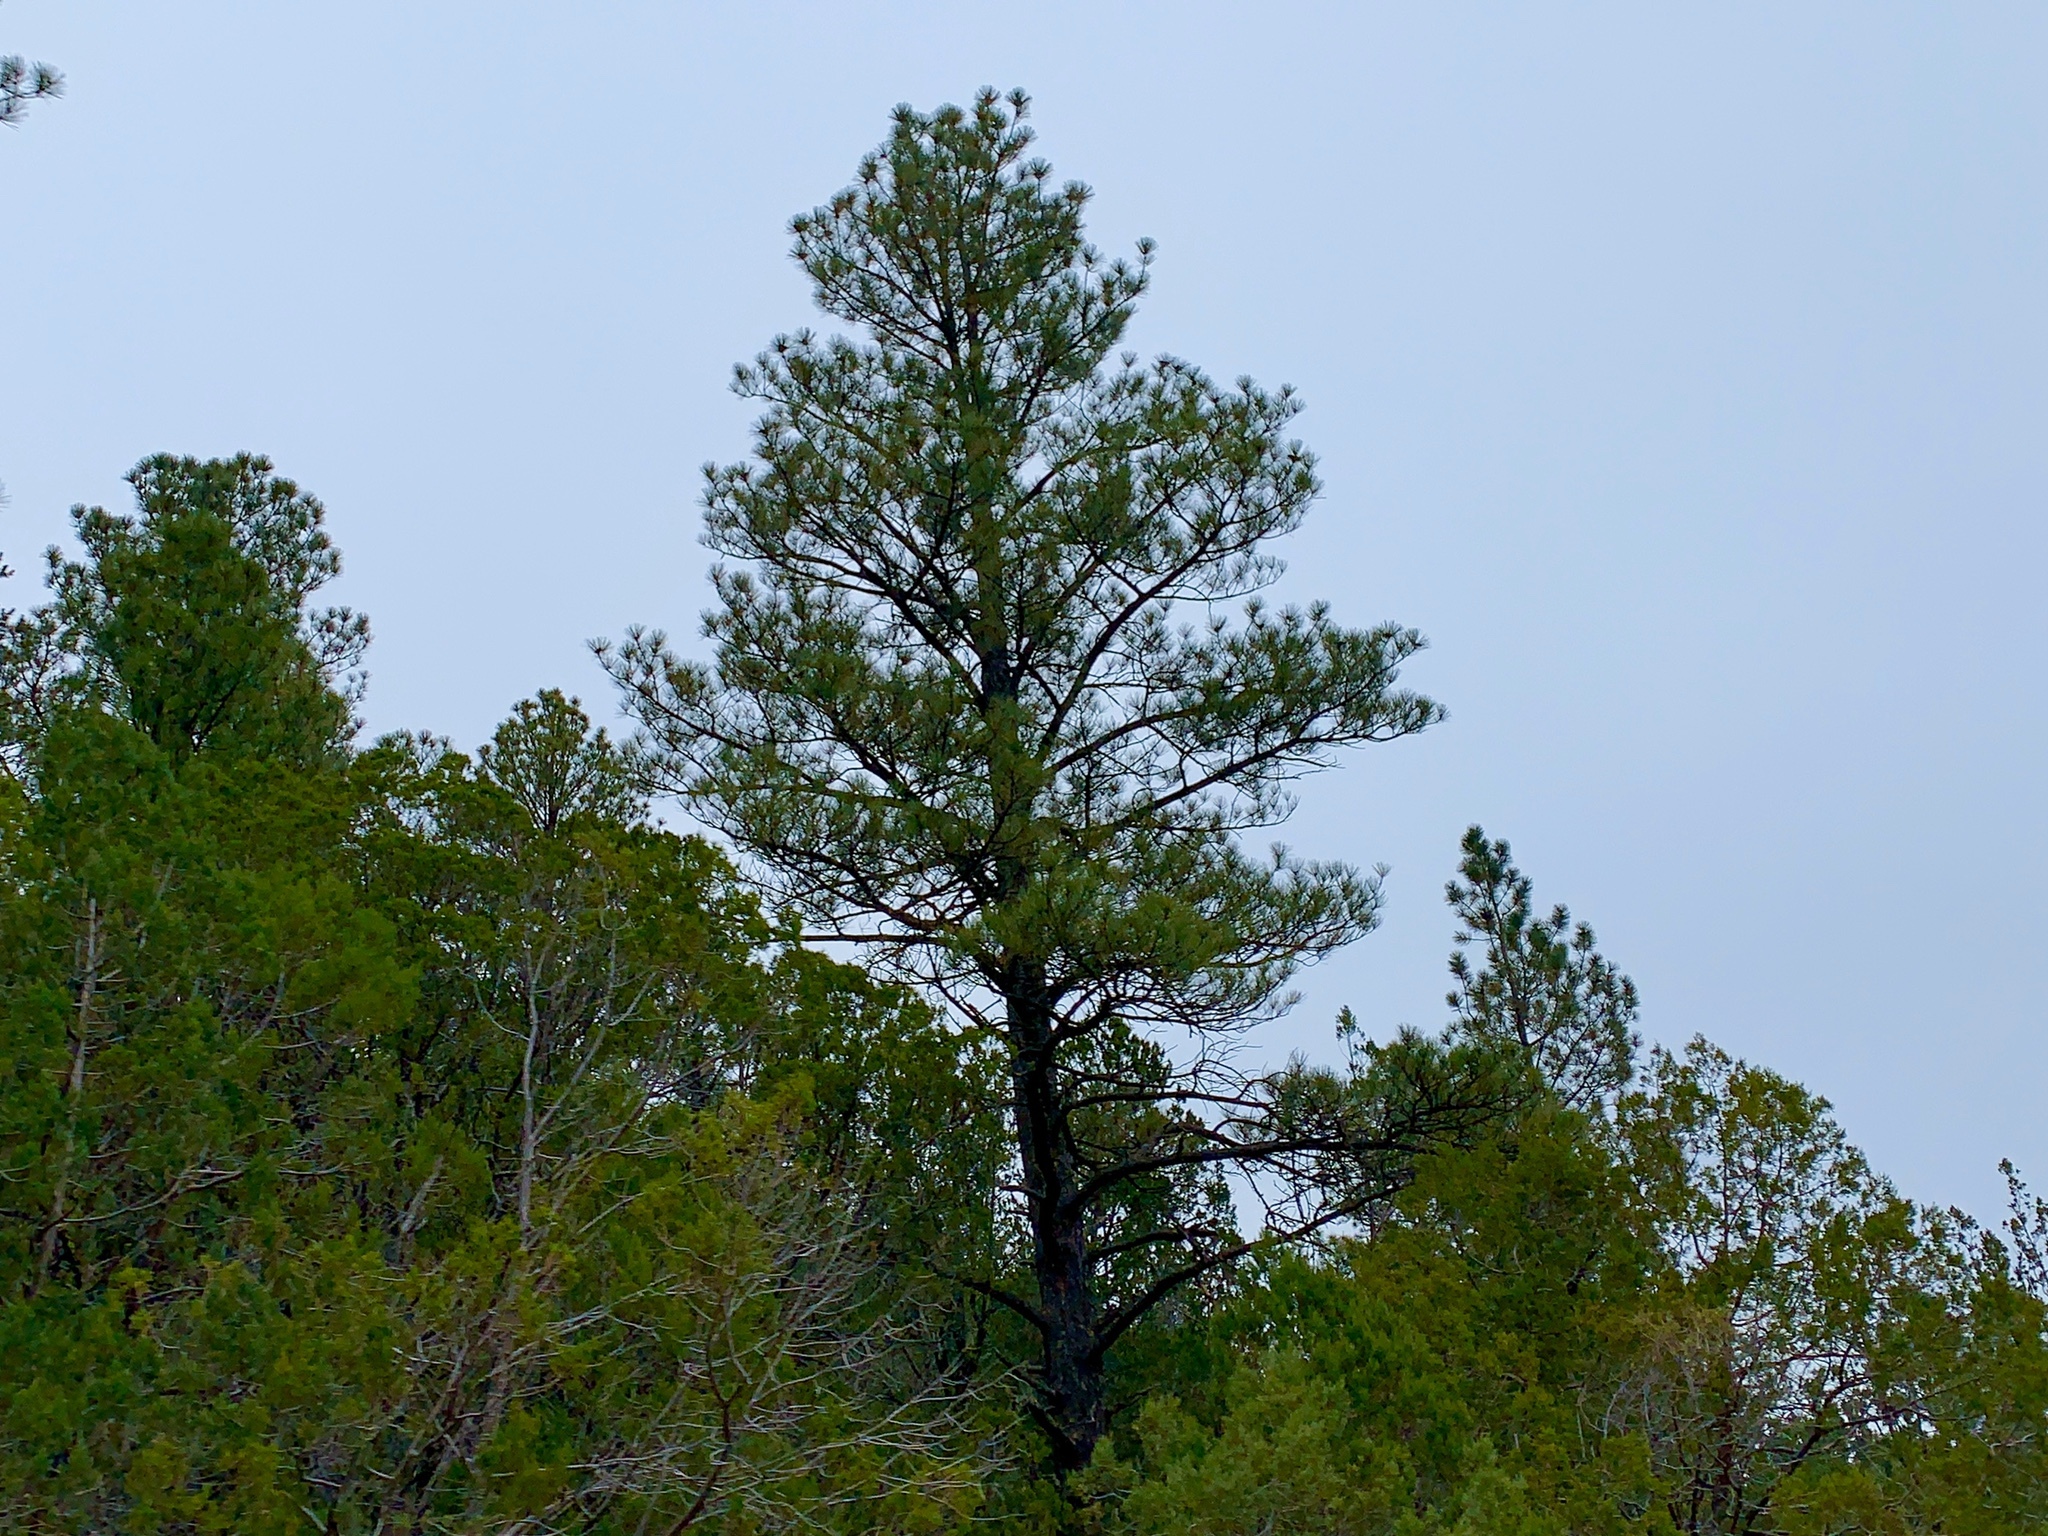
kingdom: Plantae
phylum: Tracheophyta
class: Pinopsida
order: Pinales
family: Pinaceae
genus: Pinus
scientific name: Pinus ponderosa
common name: Western yellow-pine
